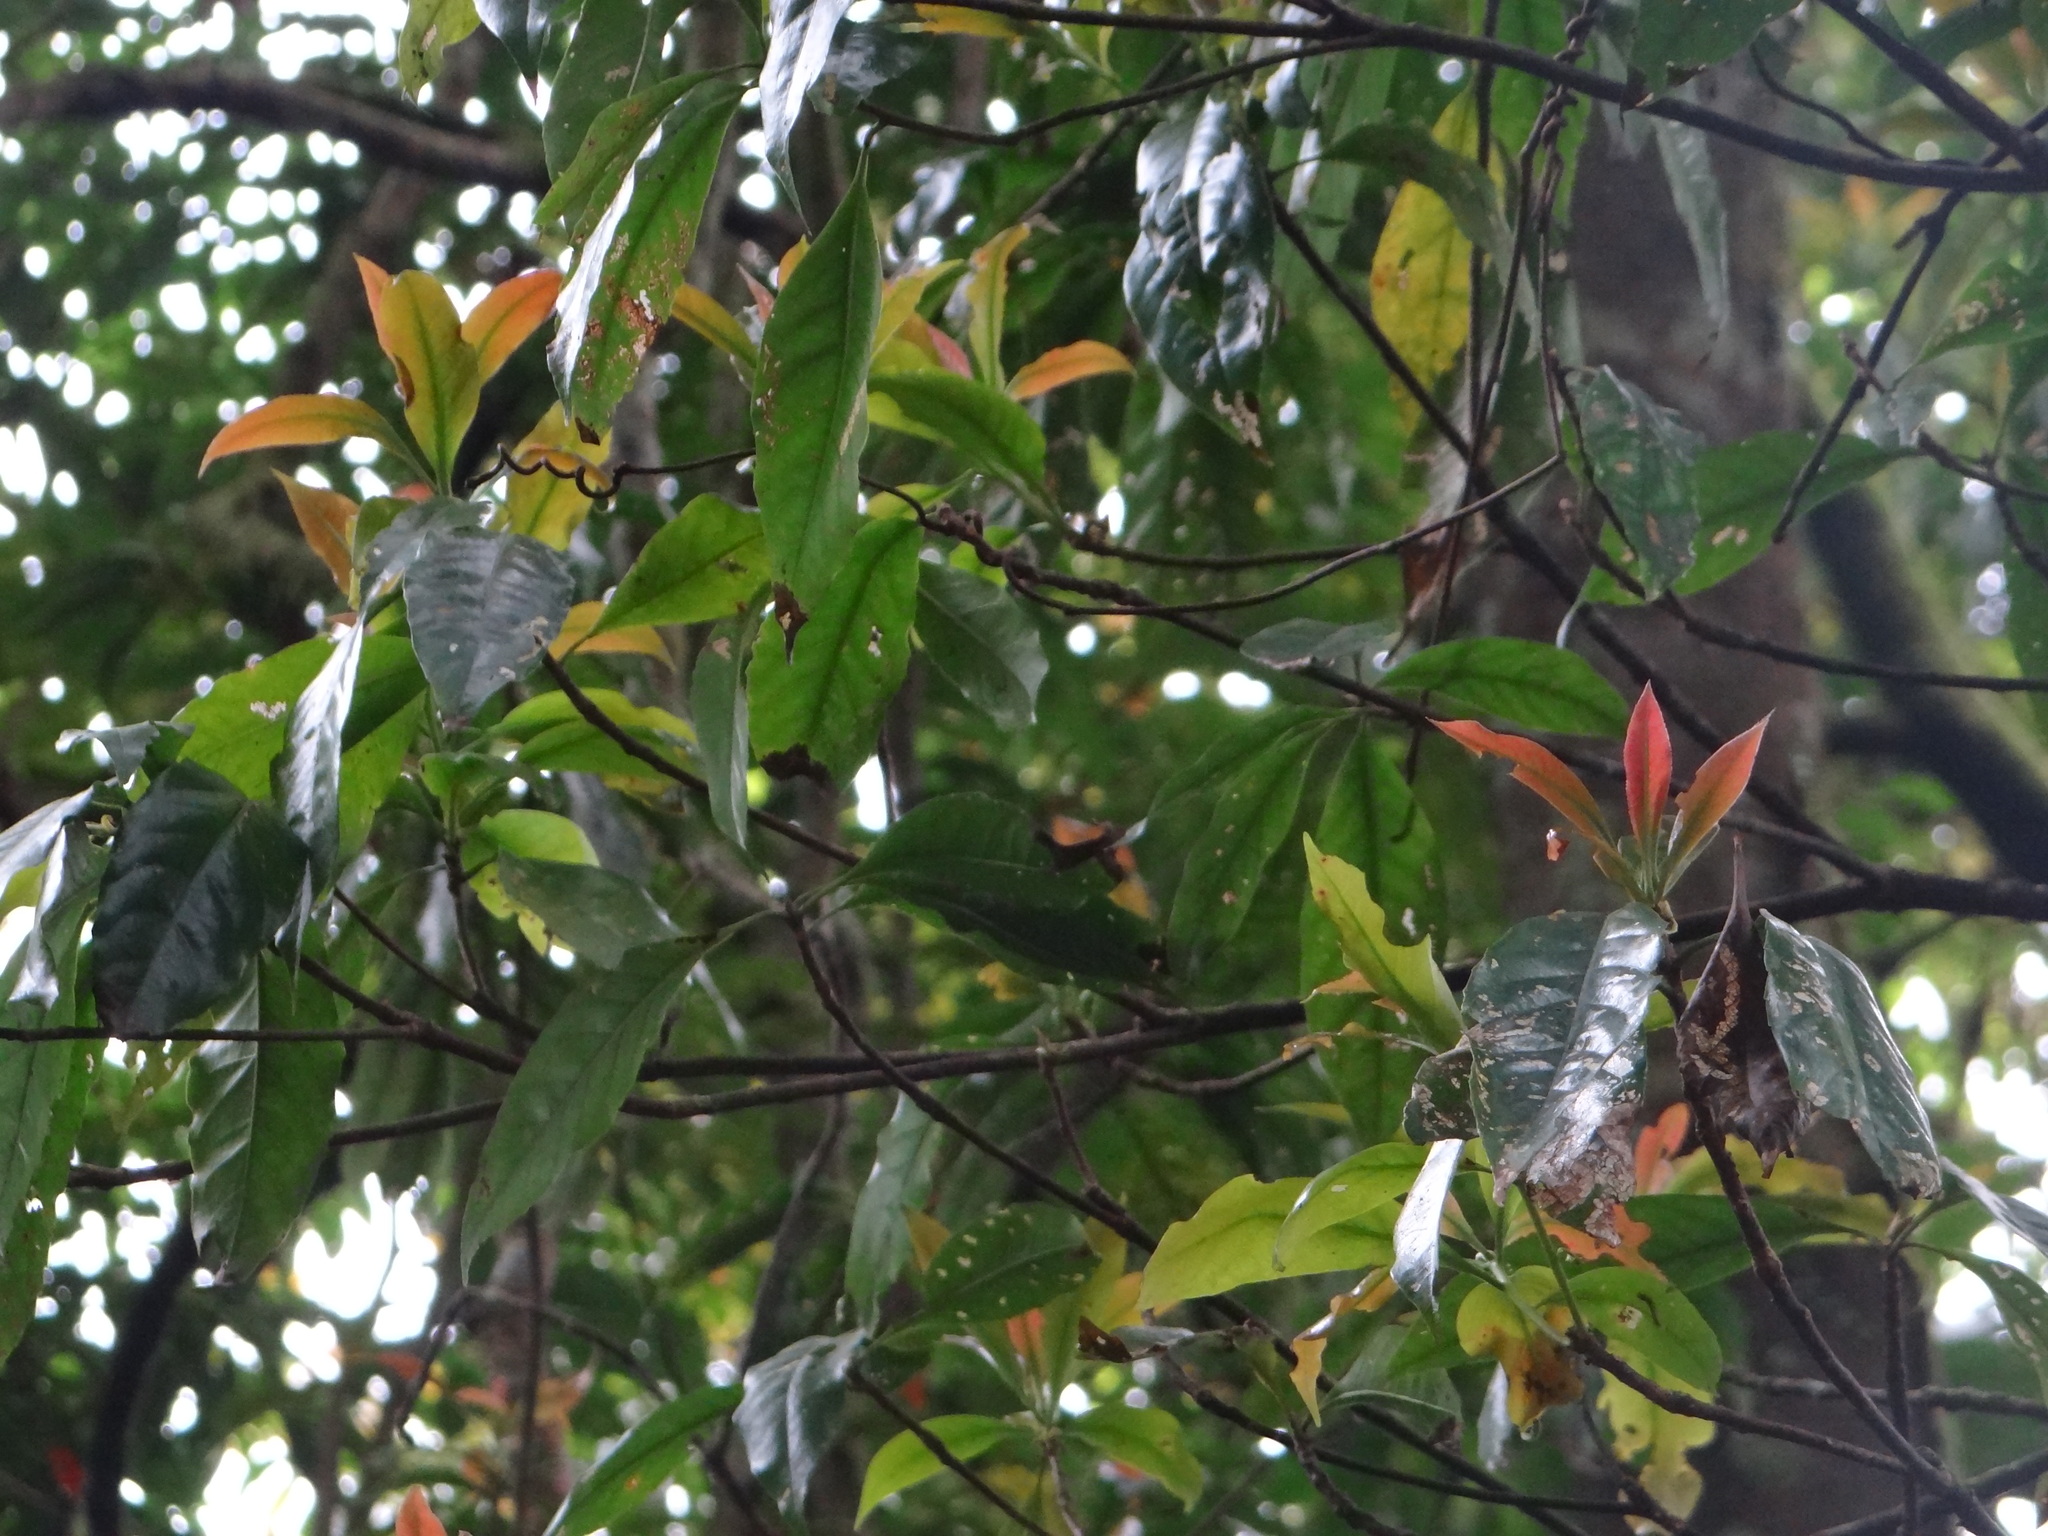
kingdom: Plantae
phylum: Tracheophyta
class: Magnoliopsida
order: Ericales
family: Theaceae
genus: Schima
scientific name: Schima superba
